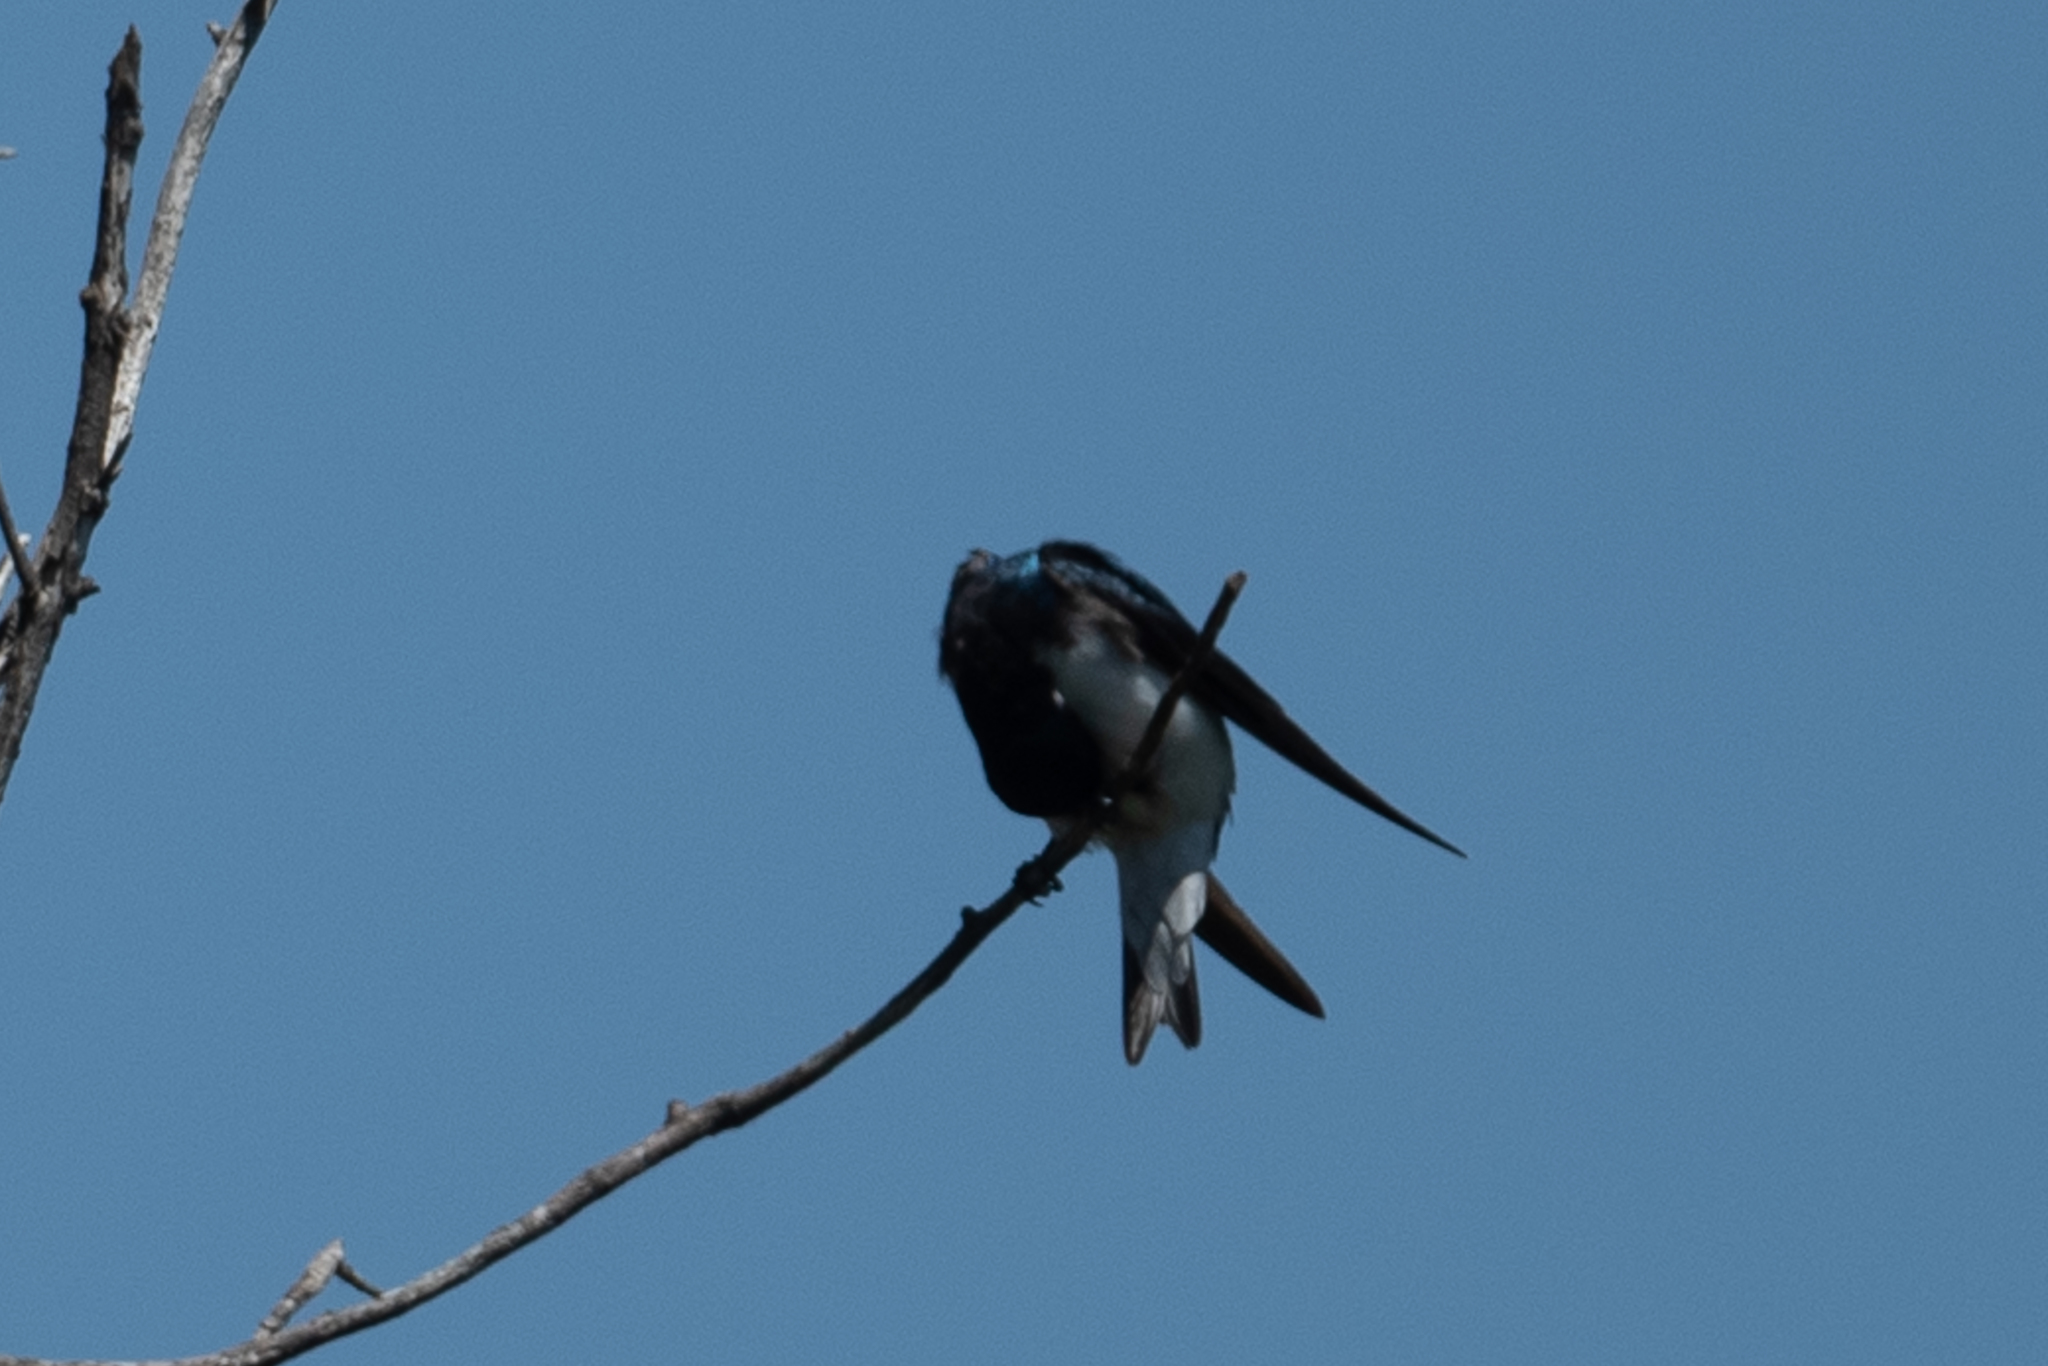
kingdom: Animalia
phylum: Chordata
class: Aves
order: Passeriformes
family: Hirundinidae
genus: Tachycineta
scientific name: Tachycineta bicolor
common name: Tree swallow
